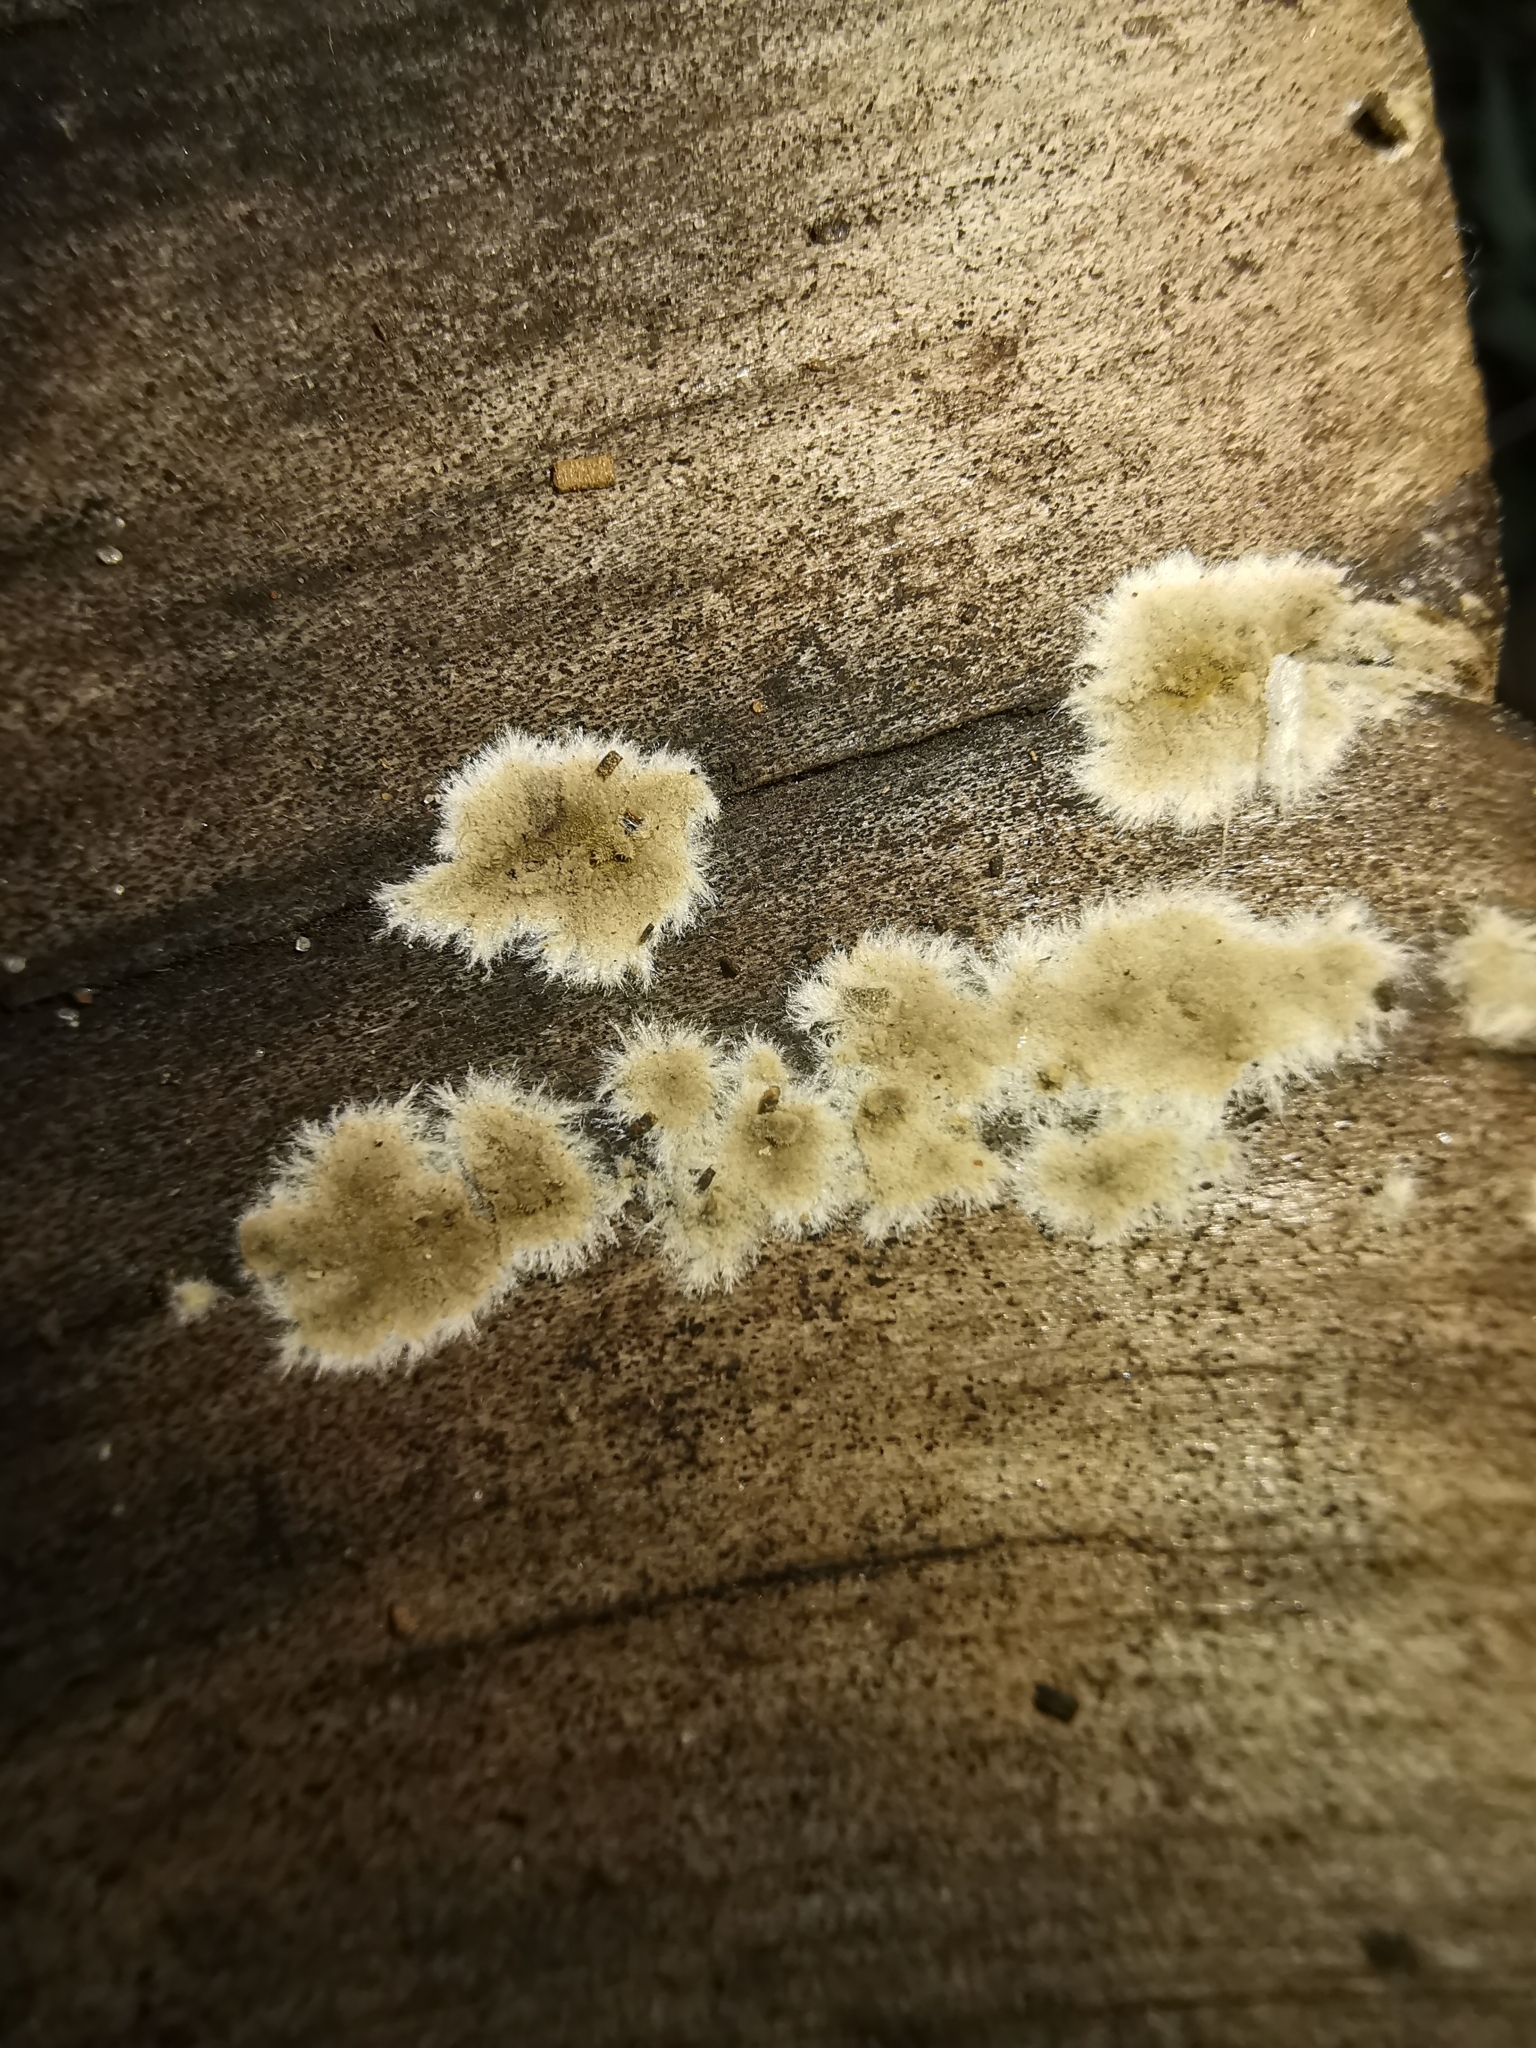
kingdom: Fungi
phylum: Basidiomycota
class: Agaricomycetes
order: Boletales
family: Coniophoraceae
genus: Coniophora
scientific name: Coniophora puteana
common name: Cellar fungus
